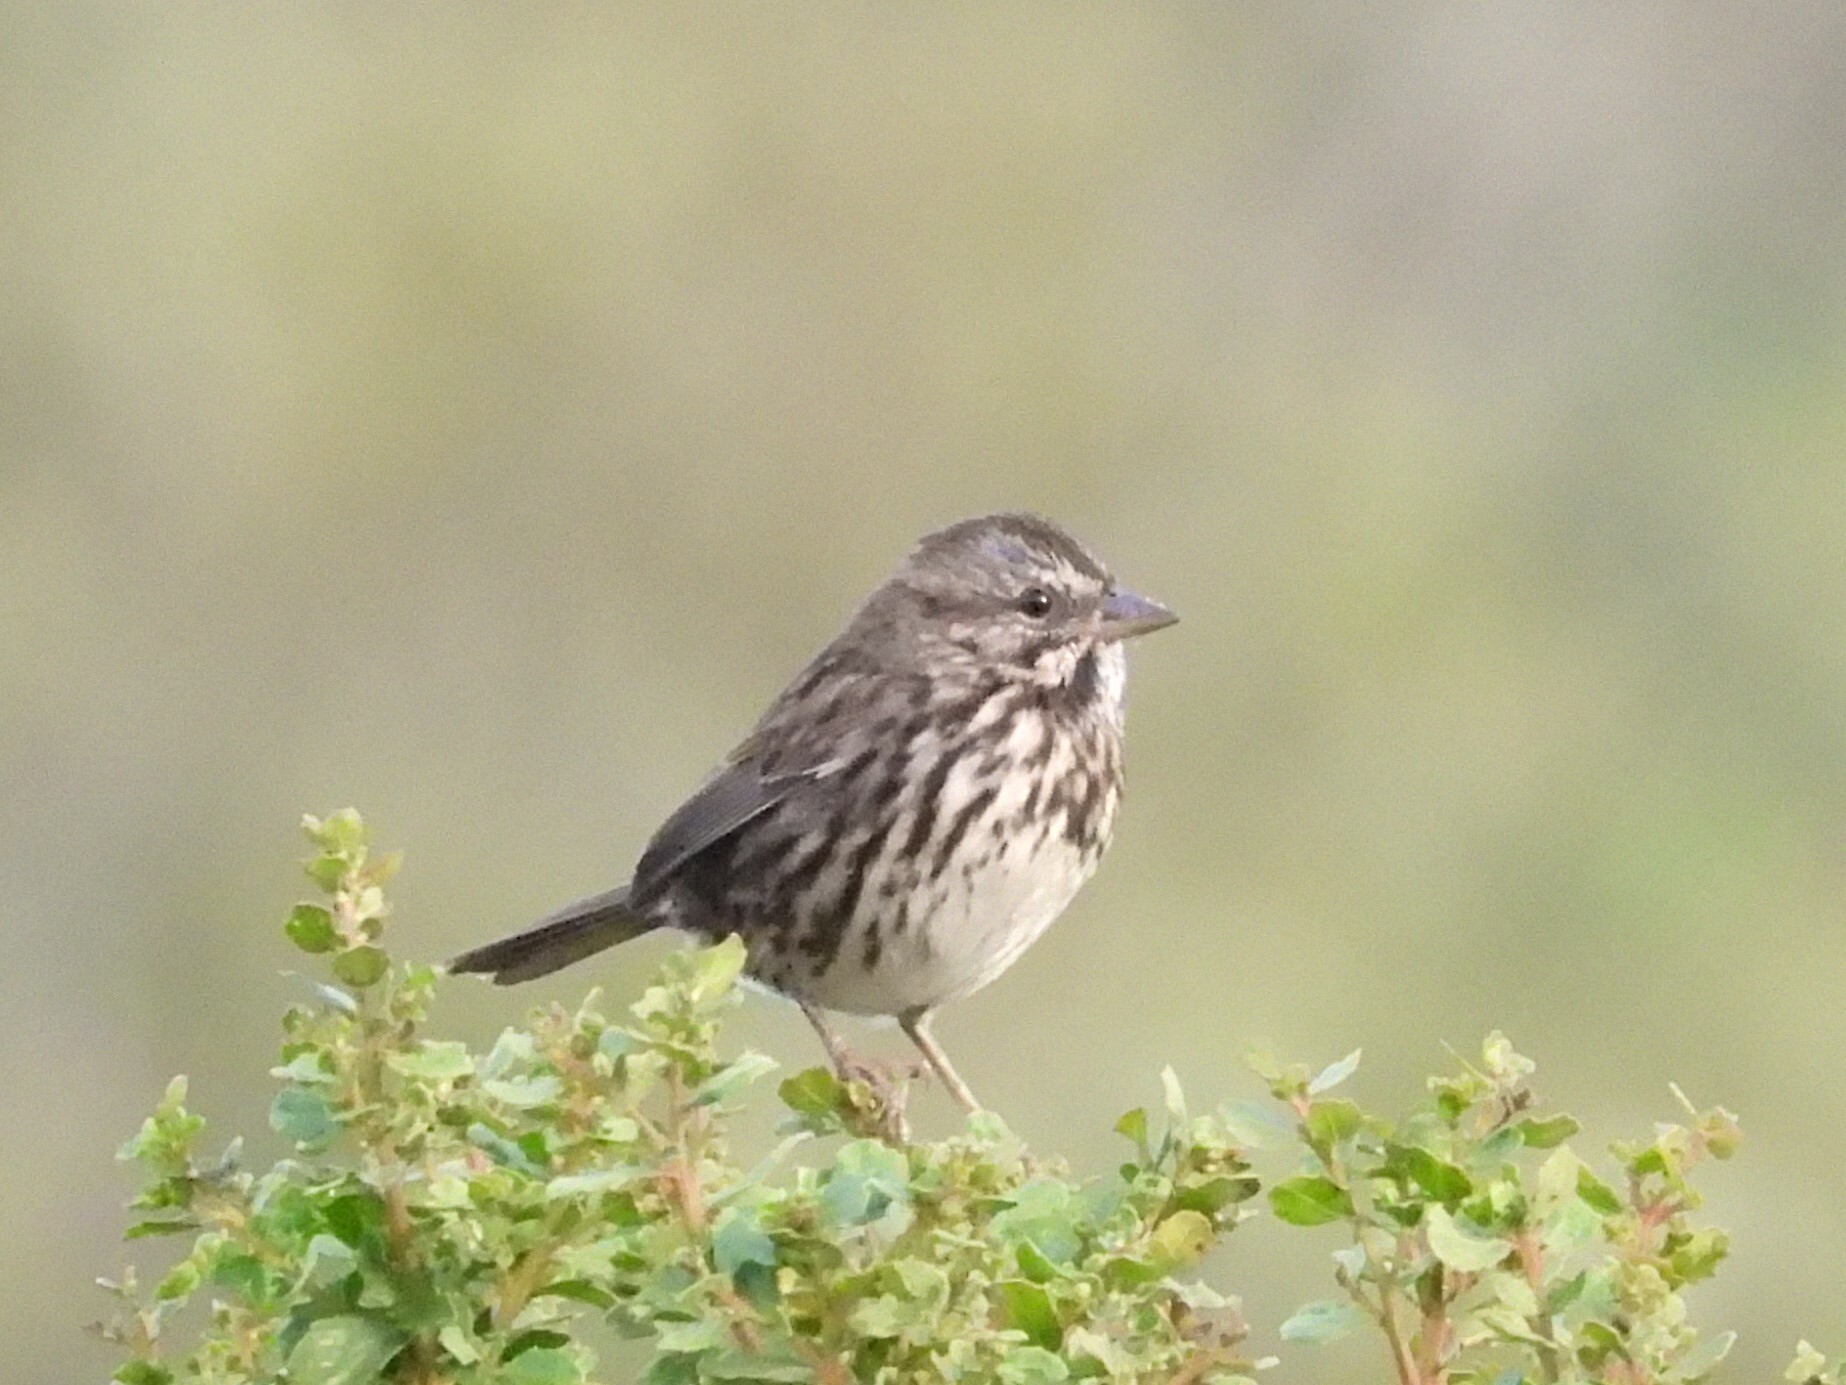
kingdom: Animalia
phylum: Chordata
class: Aves
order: Passeriformes
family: Passerellidae
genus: Melospiza
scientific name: Melospiza melodia
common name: Song sparrow
